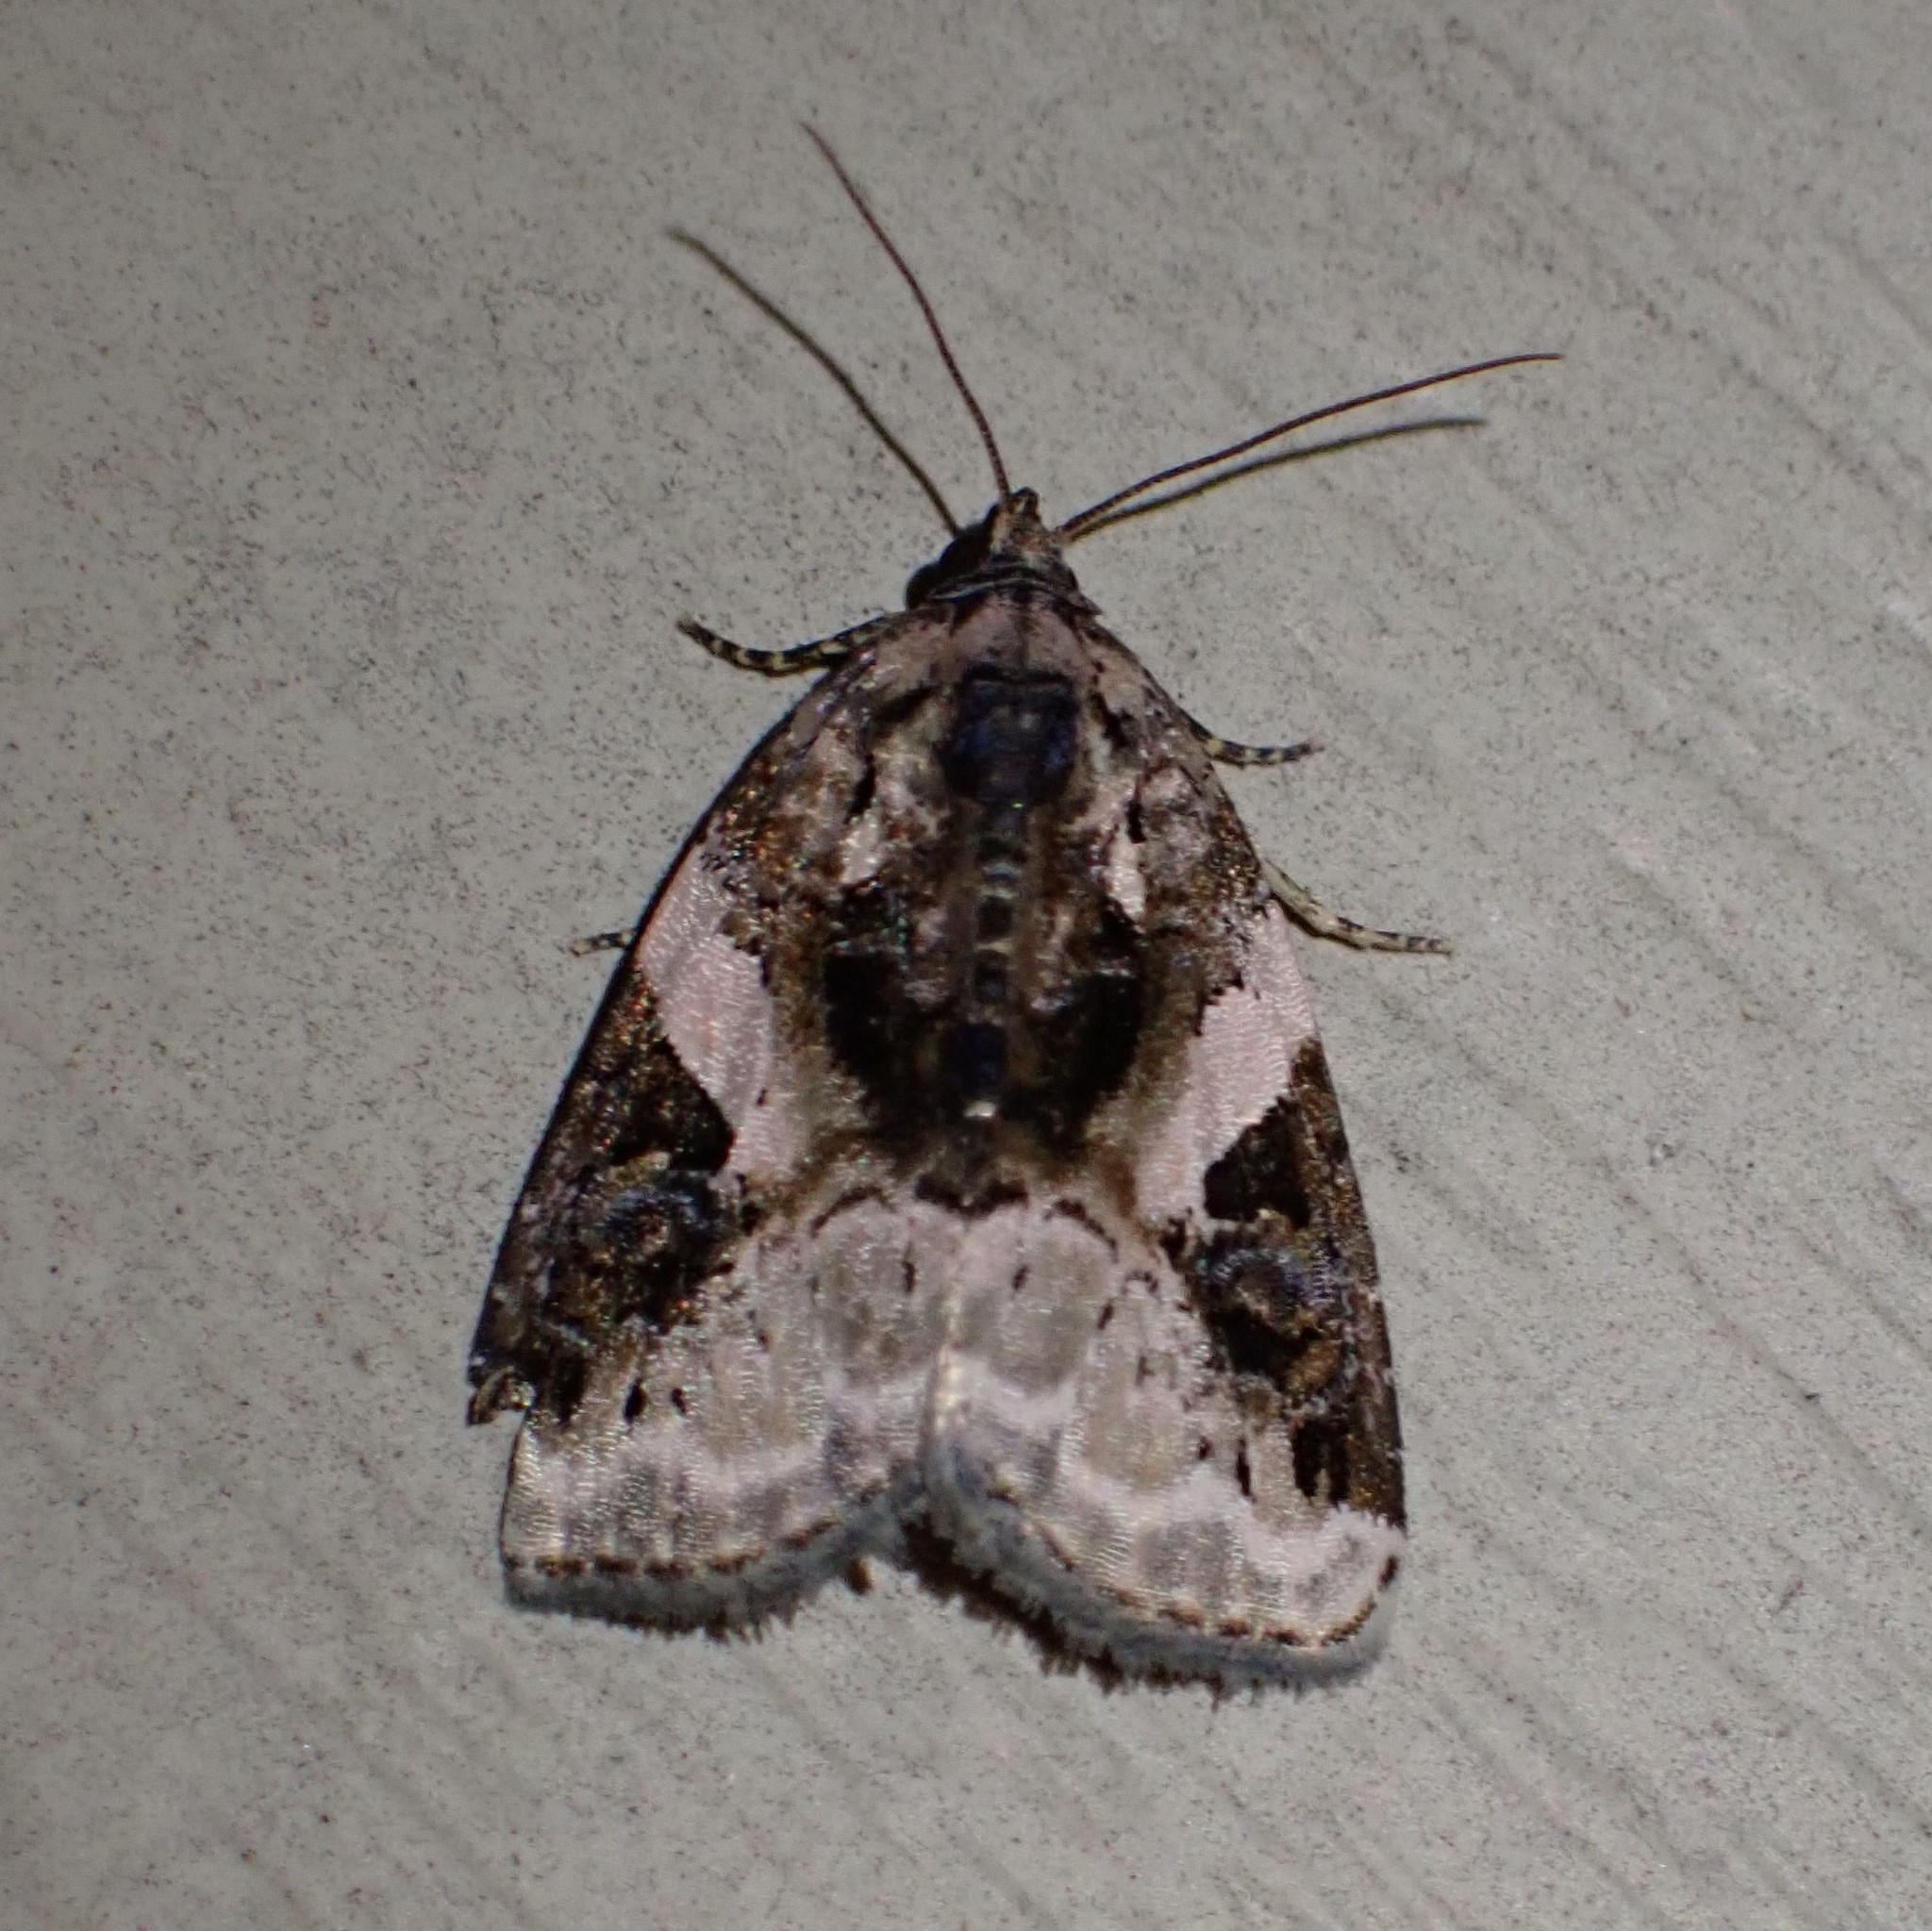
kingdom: Animalia
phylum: Arthropoda
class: Insecta
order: Lepidoptera
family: Noctuidae
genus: Pseudeustrotia
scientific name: Pseudeustrotia carneola
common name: Pink-barred lithacodia moth
